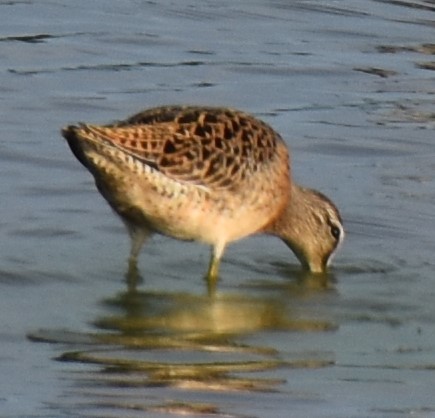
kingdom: Animalia
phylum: Chordata
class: Aves
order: Charadriiformes
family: Scolopacidae
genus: Limnodromus
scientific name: Limnodromus griseus
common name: Short-billed dowitcher
